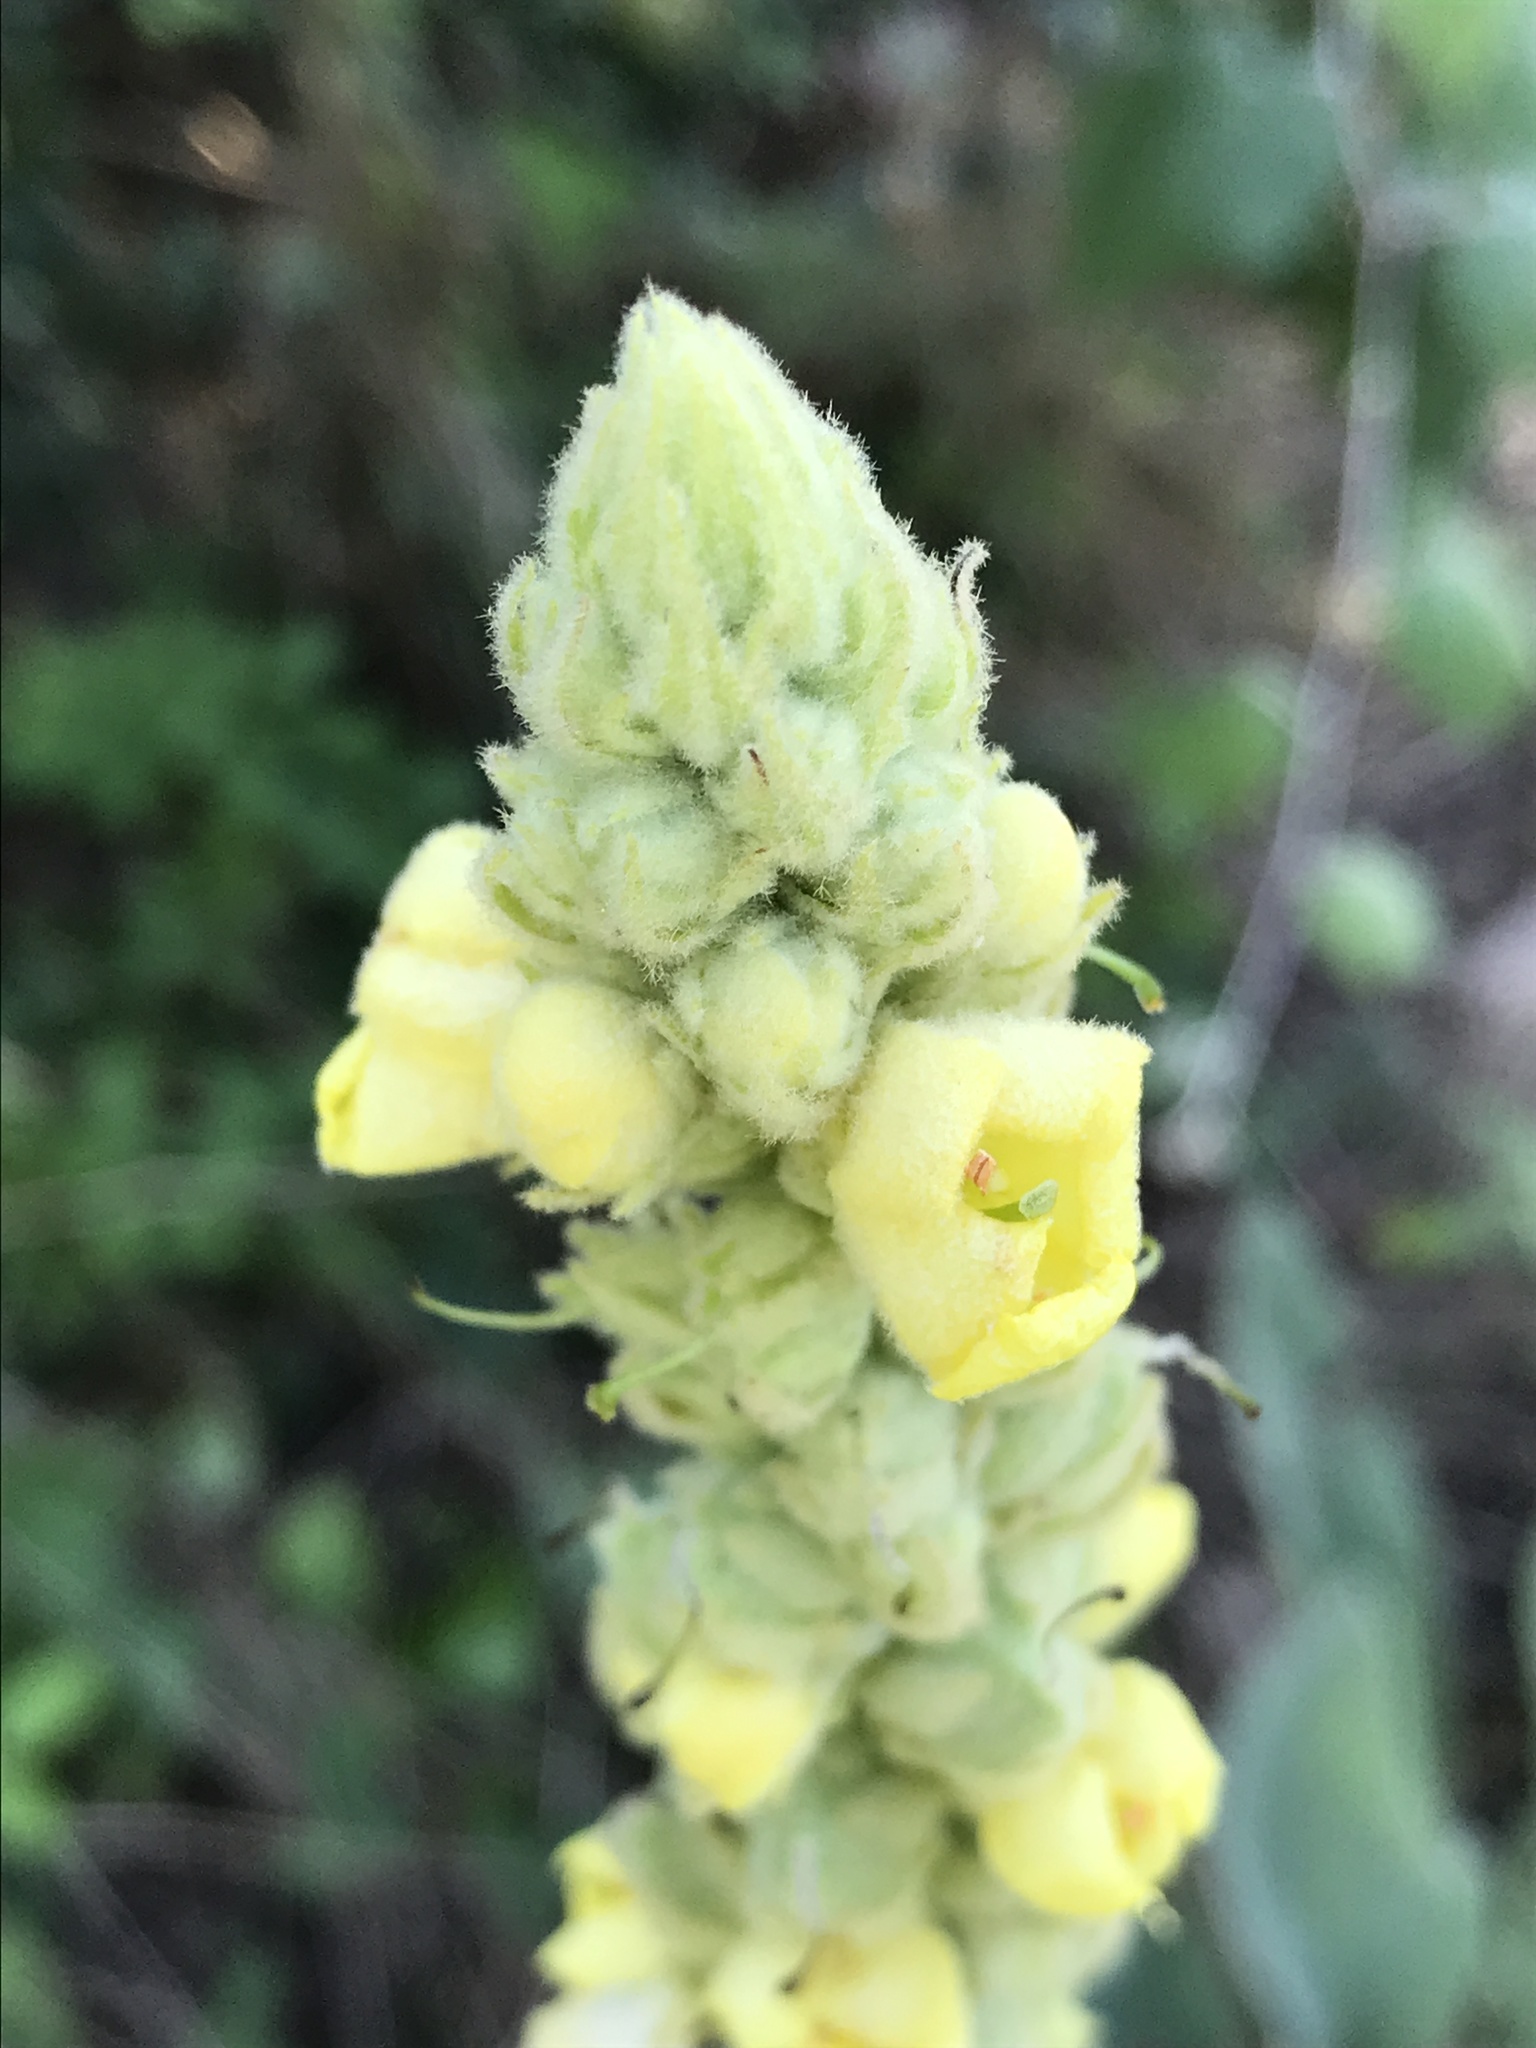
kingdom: Plantae
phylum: Tracheophyta
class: Magnoliopsida
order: Lamiales
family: Scrophulariaceae
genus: Verbascum
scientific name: Verbascum thapsus
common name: Common mullein
